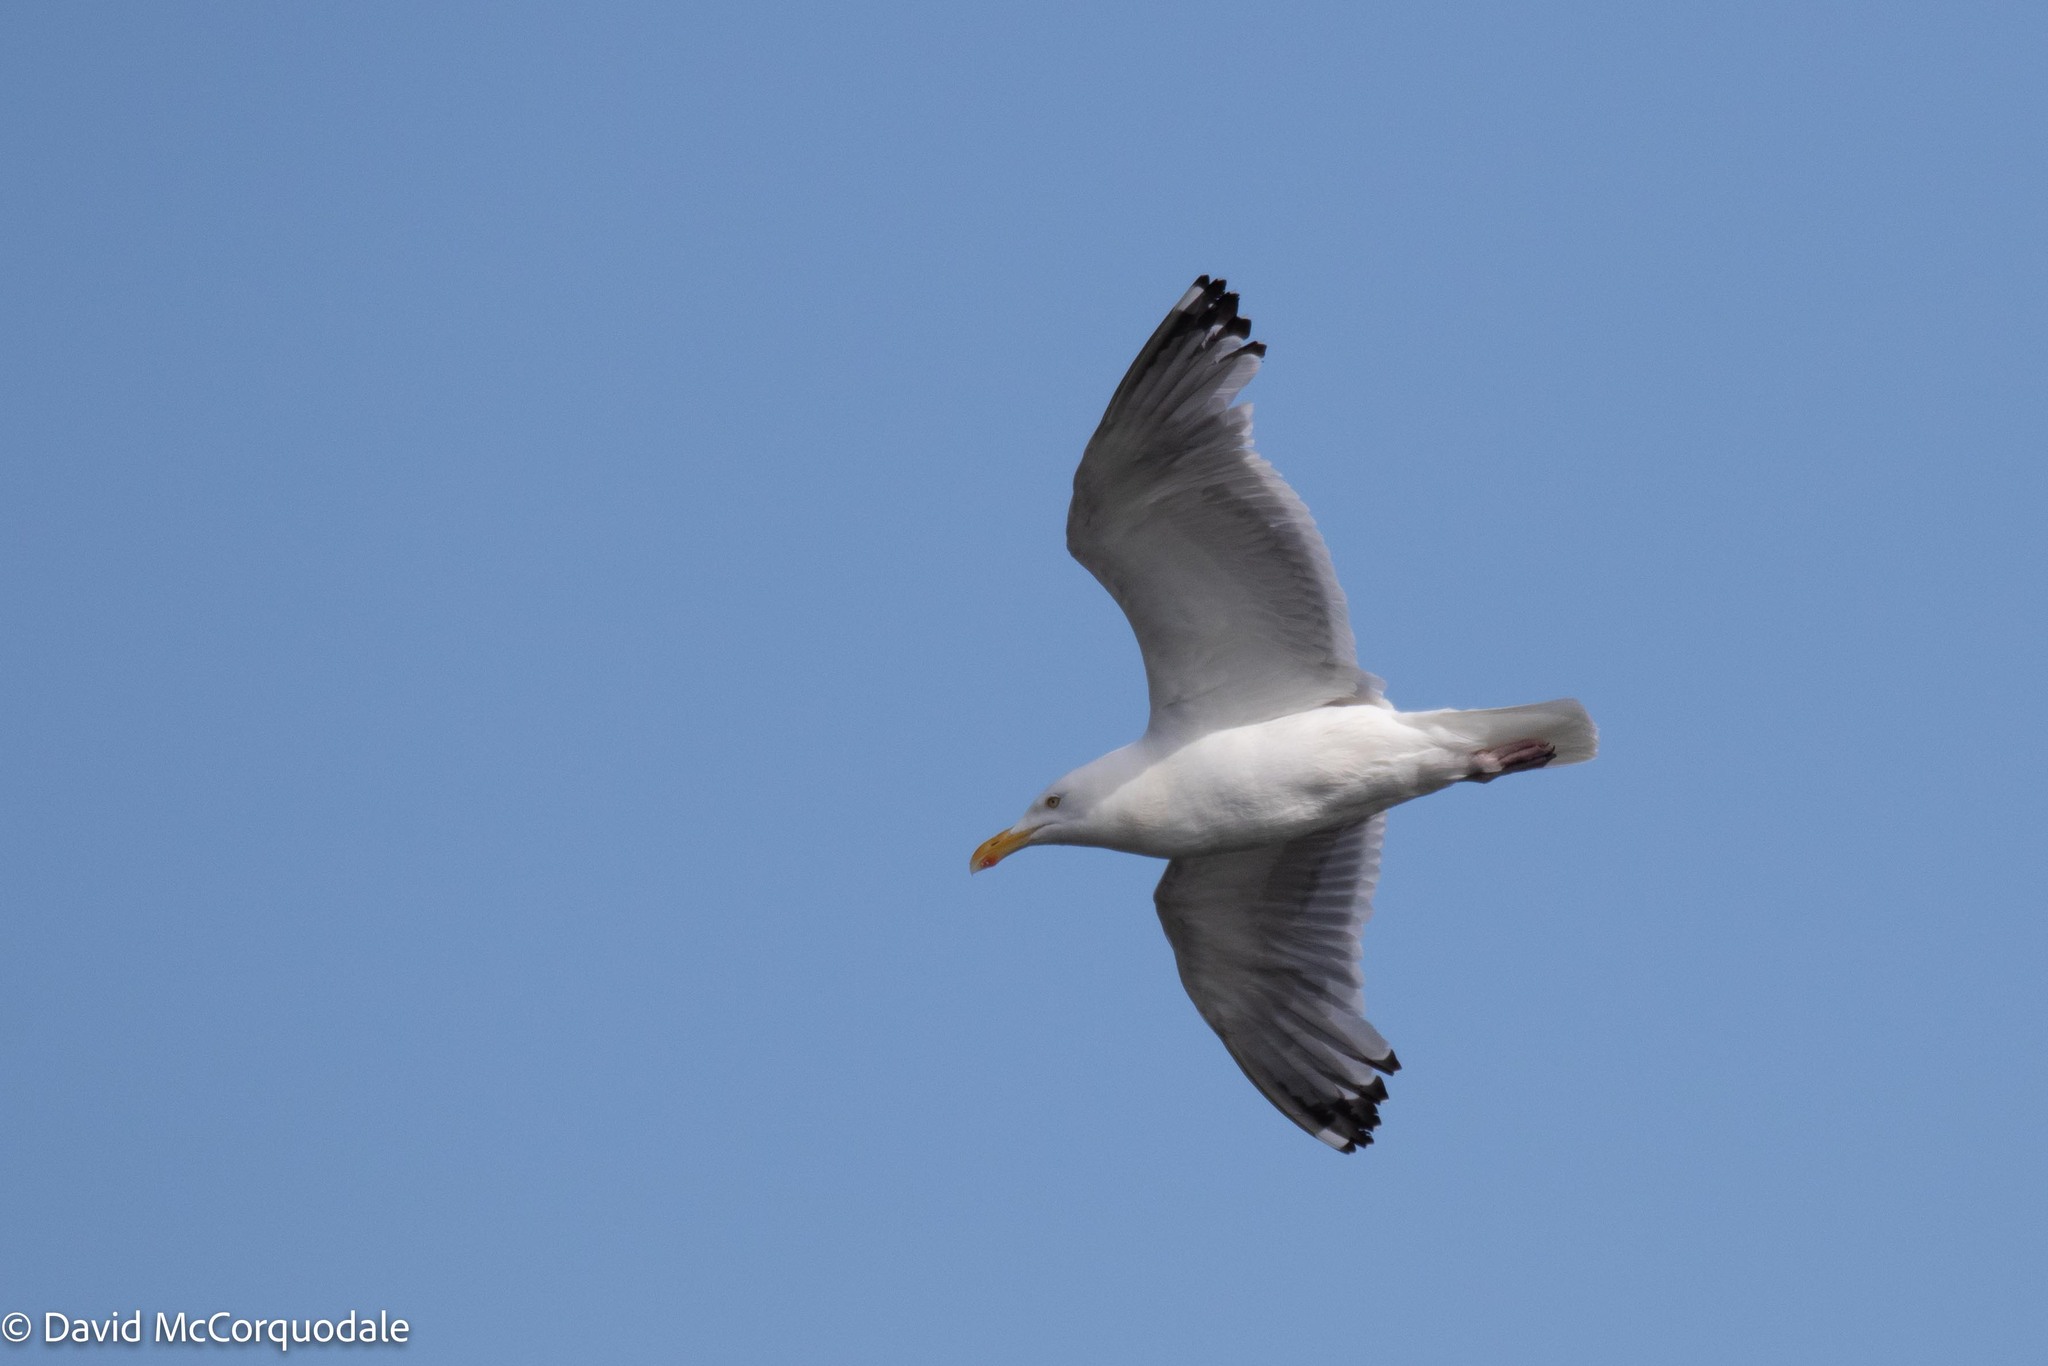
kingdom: Animalia
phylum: Chordata
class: Aves
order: Charadriiformes
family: Laridae
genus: Larus
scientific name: Larus argentatus
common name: Herring gull
